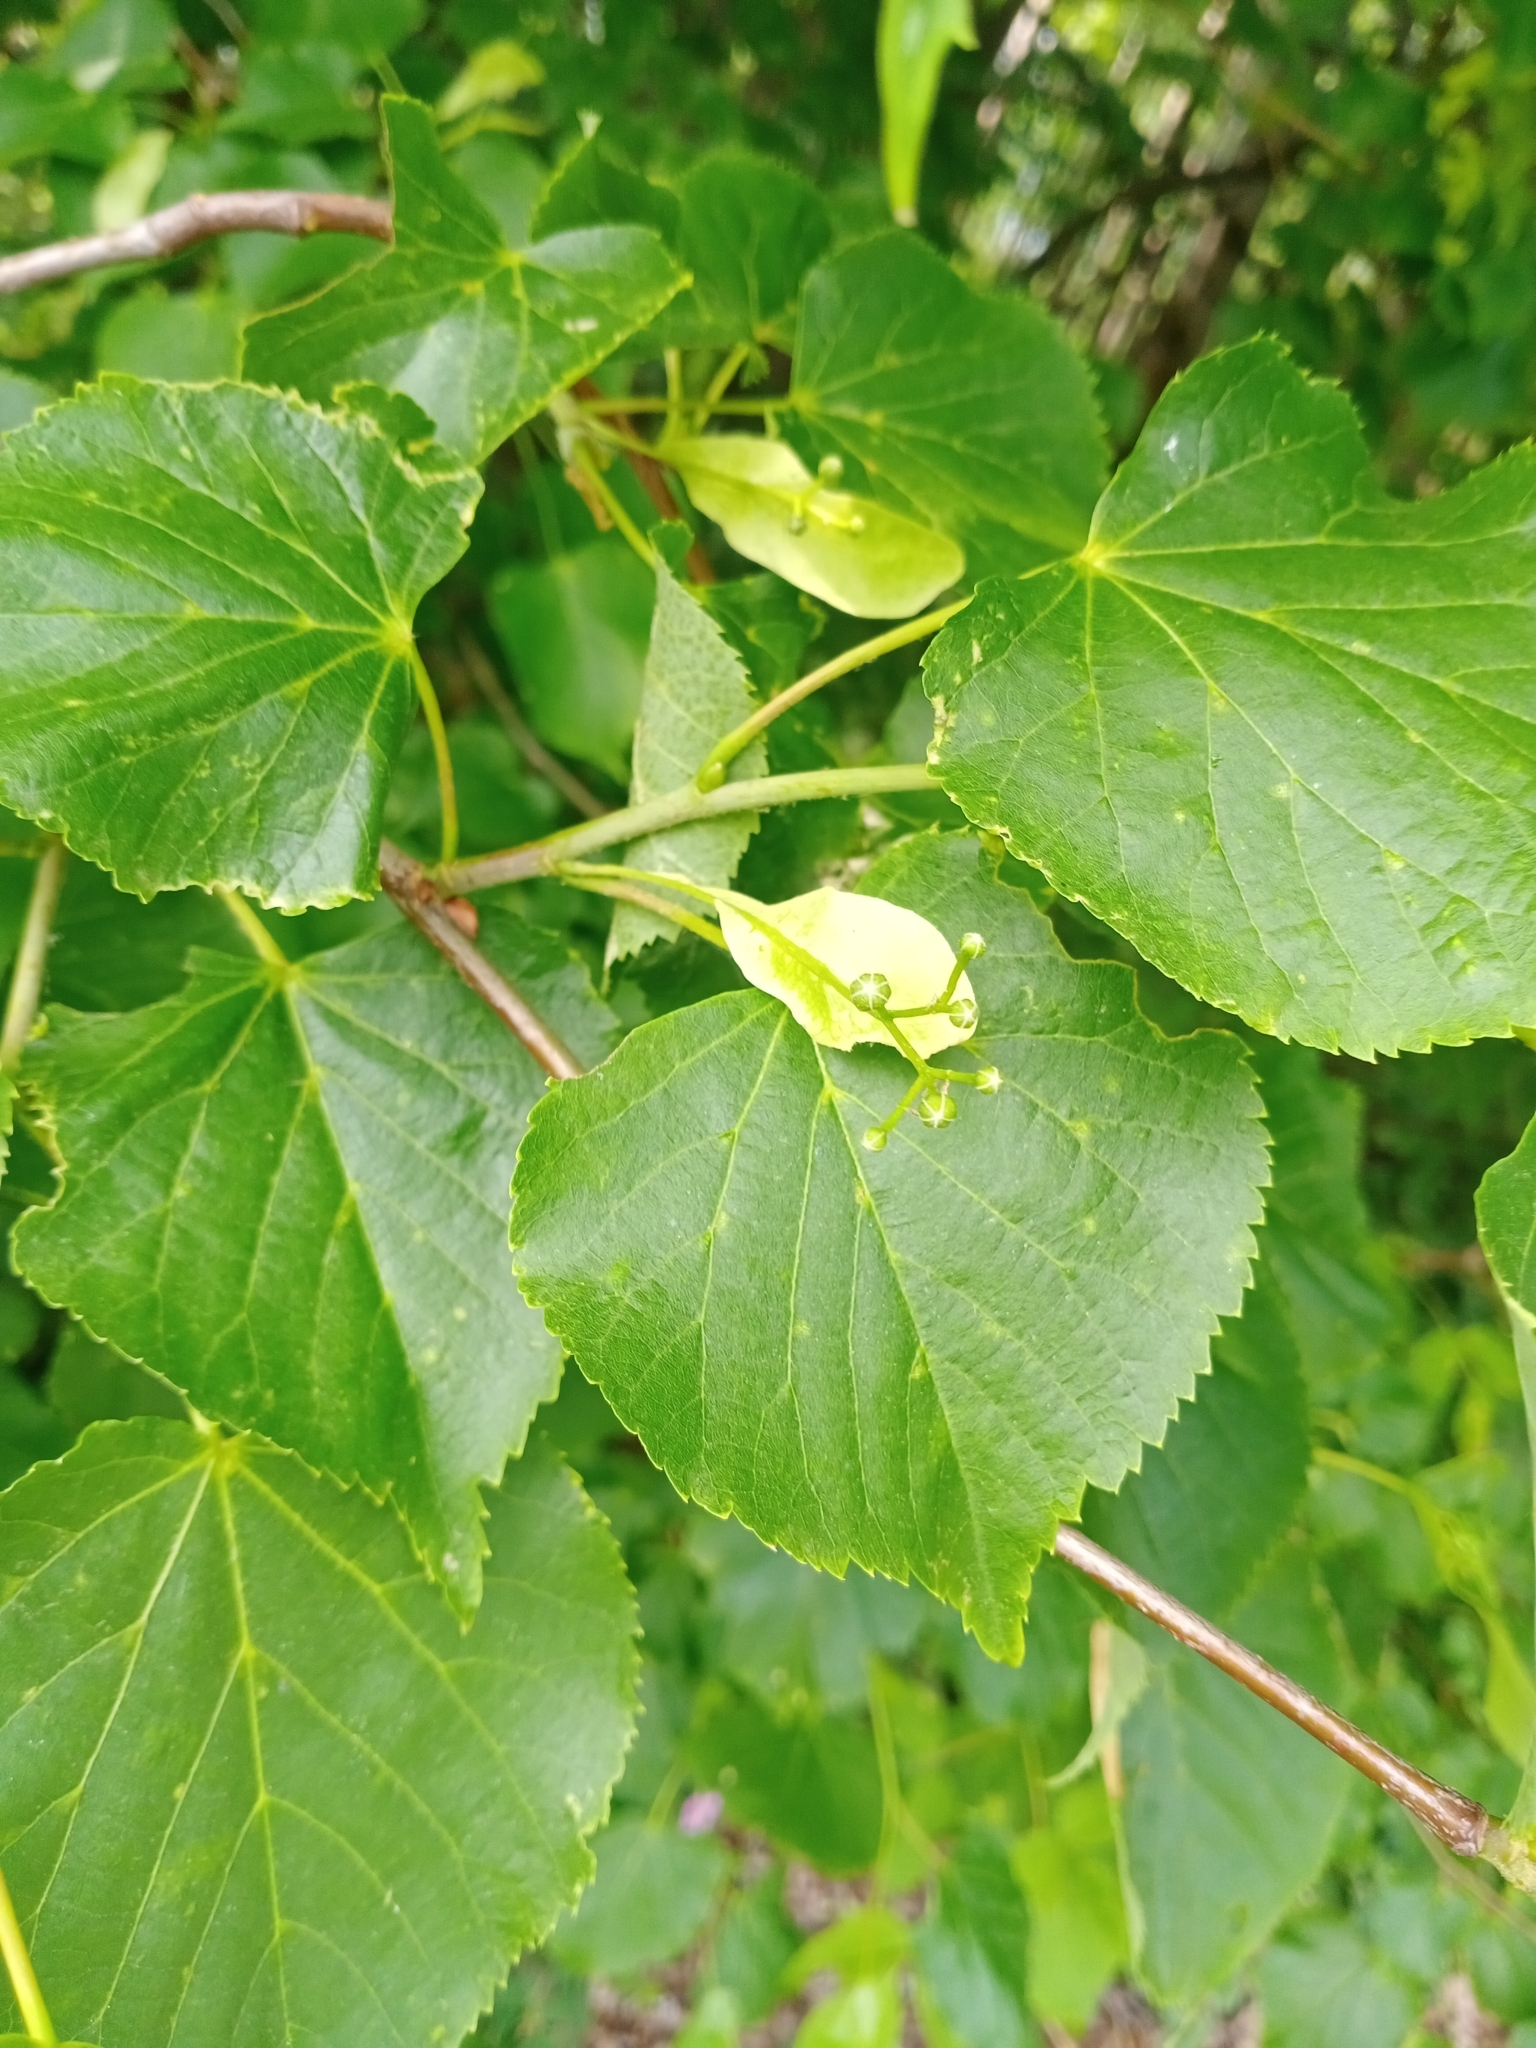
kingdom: Plantae
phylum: Tracheophyta
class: Magnoliopsida
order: Malvales
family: Malvaceae
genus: Tilia
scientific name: Tilia cordata
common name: Small-leaved lime
